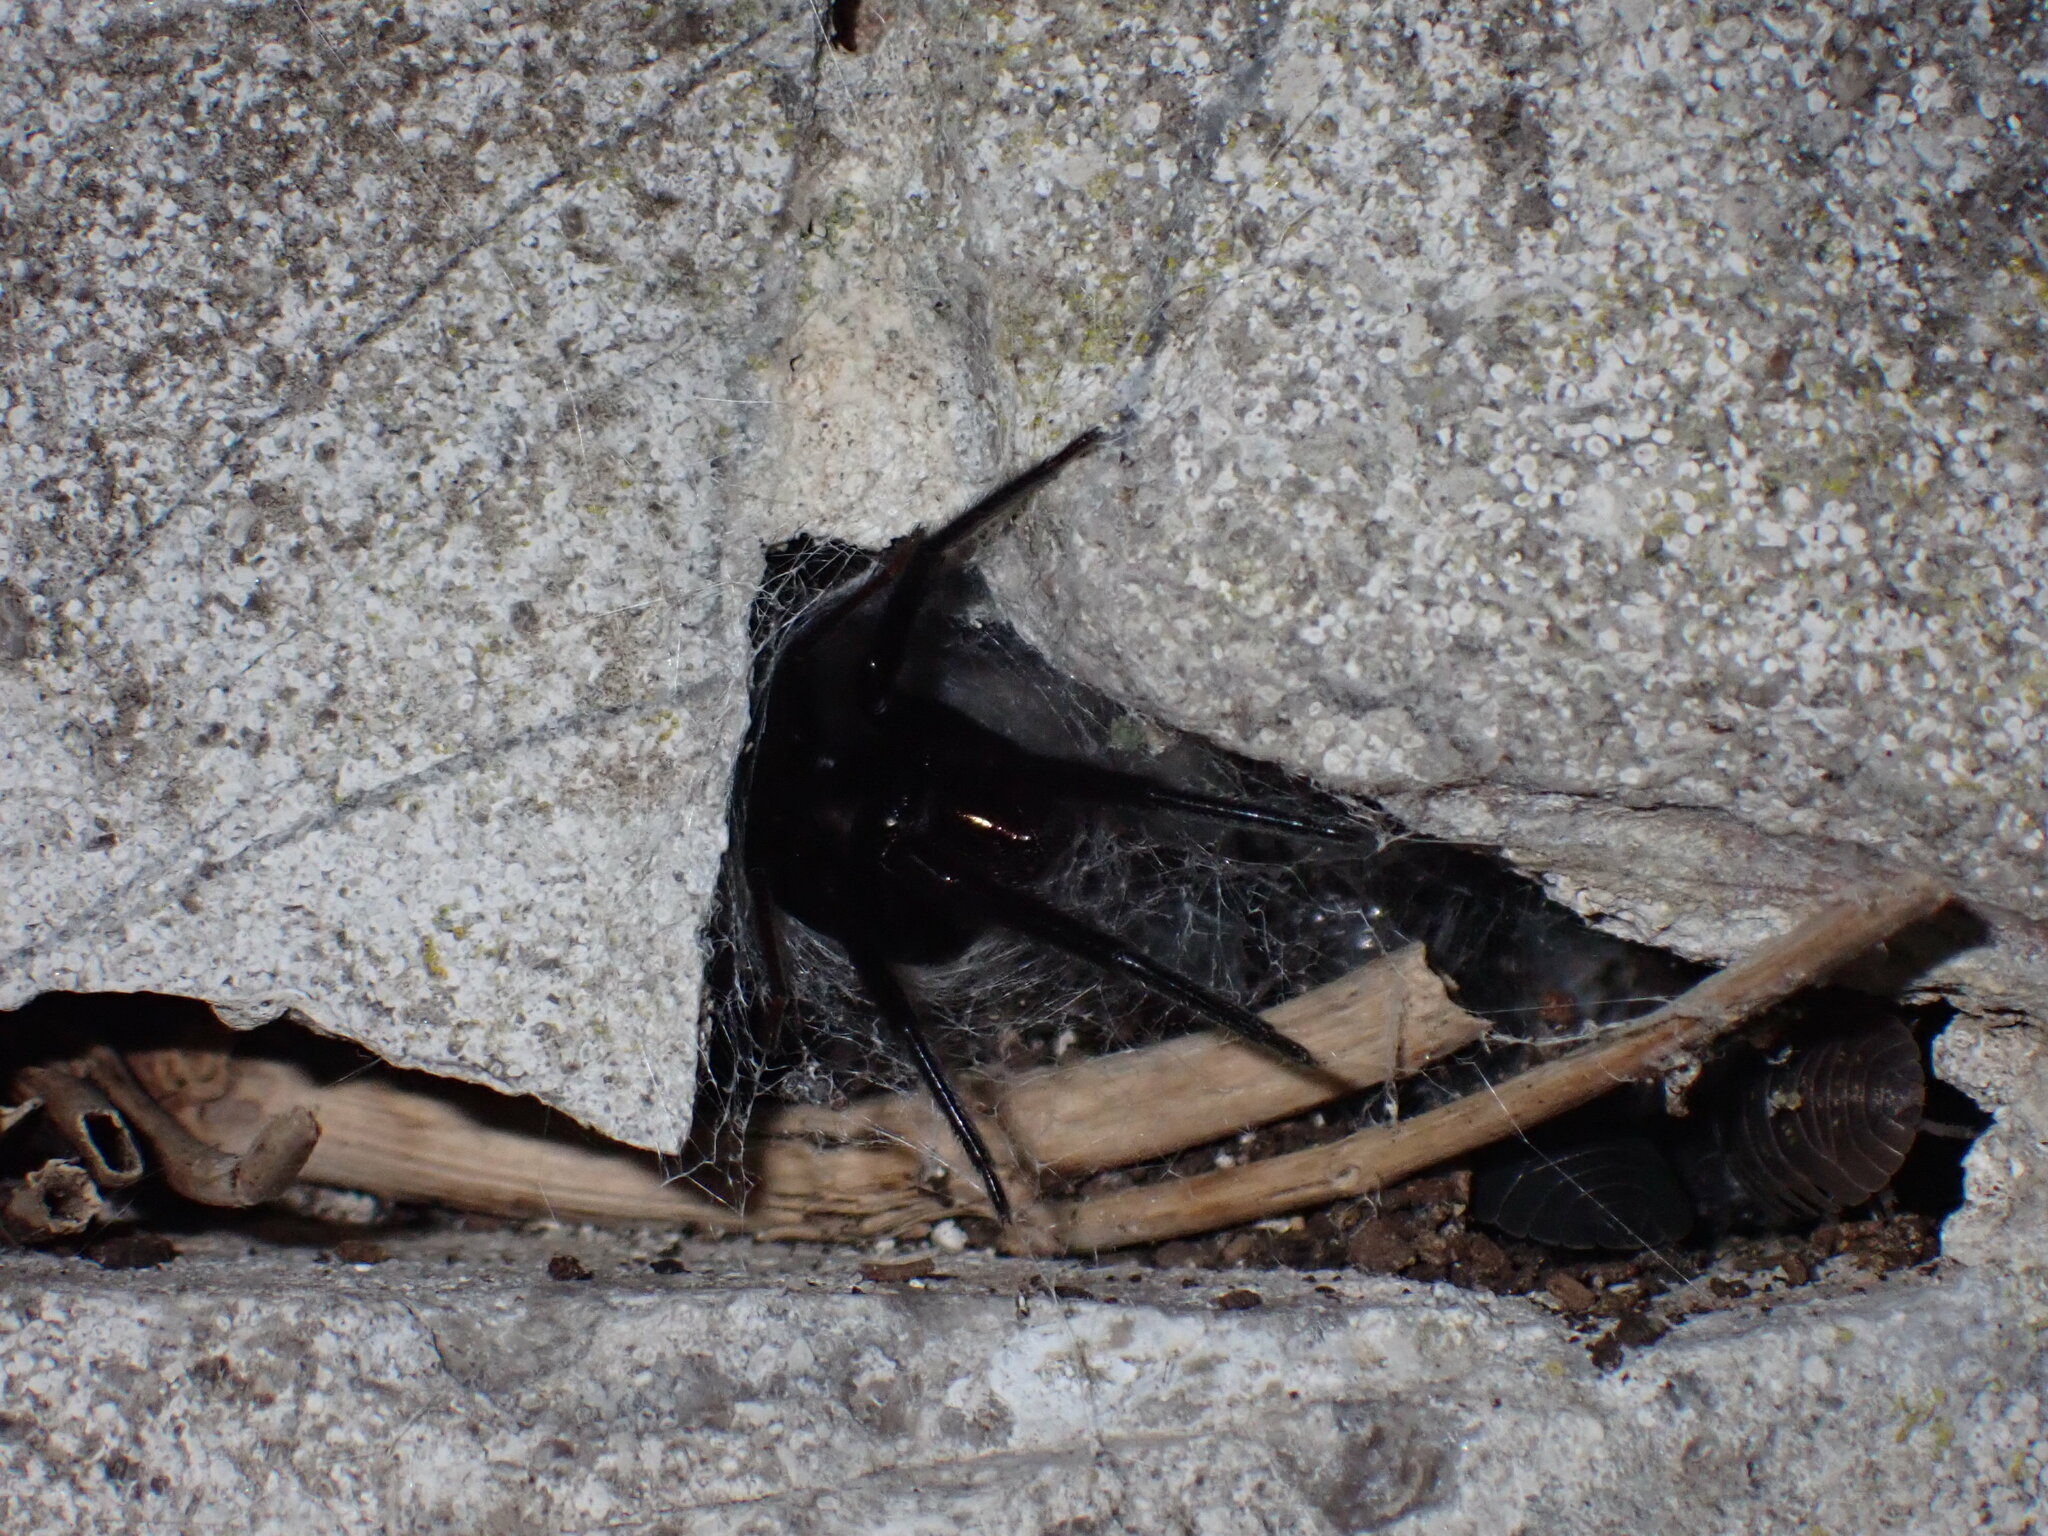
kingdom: Animalia
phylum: Arthropoda
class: Arachnida
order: Araneae
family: Segestriidae
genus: Segestria
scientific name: Segestria florentina
